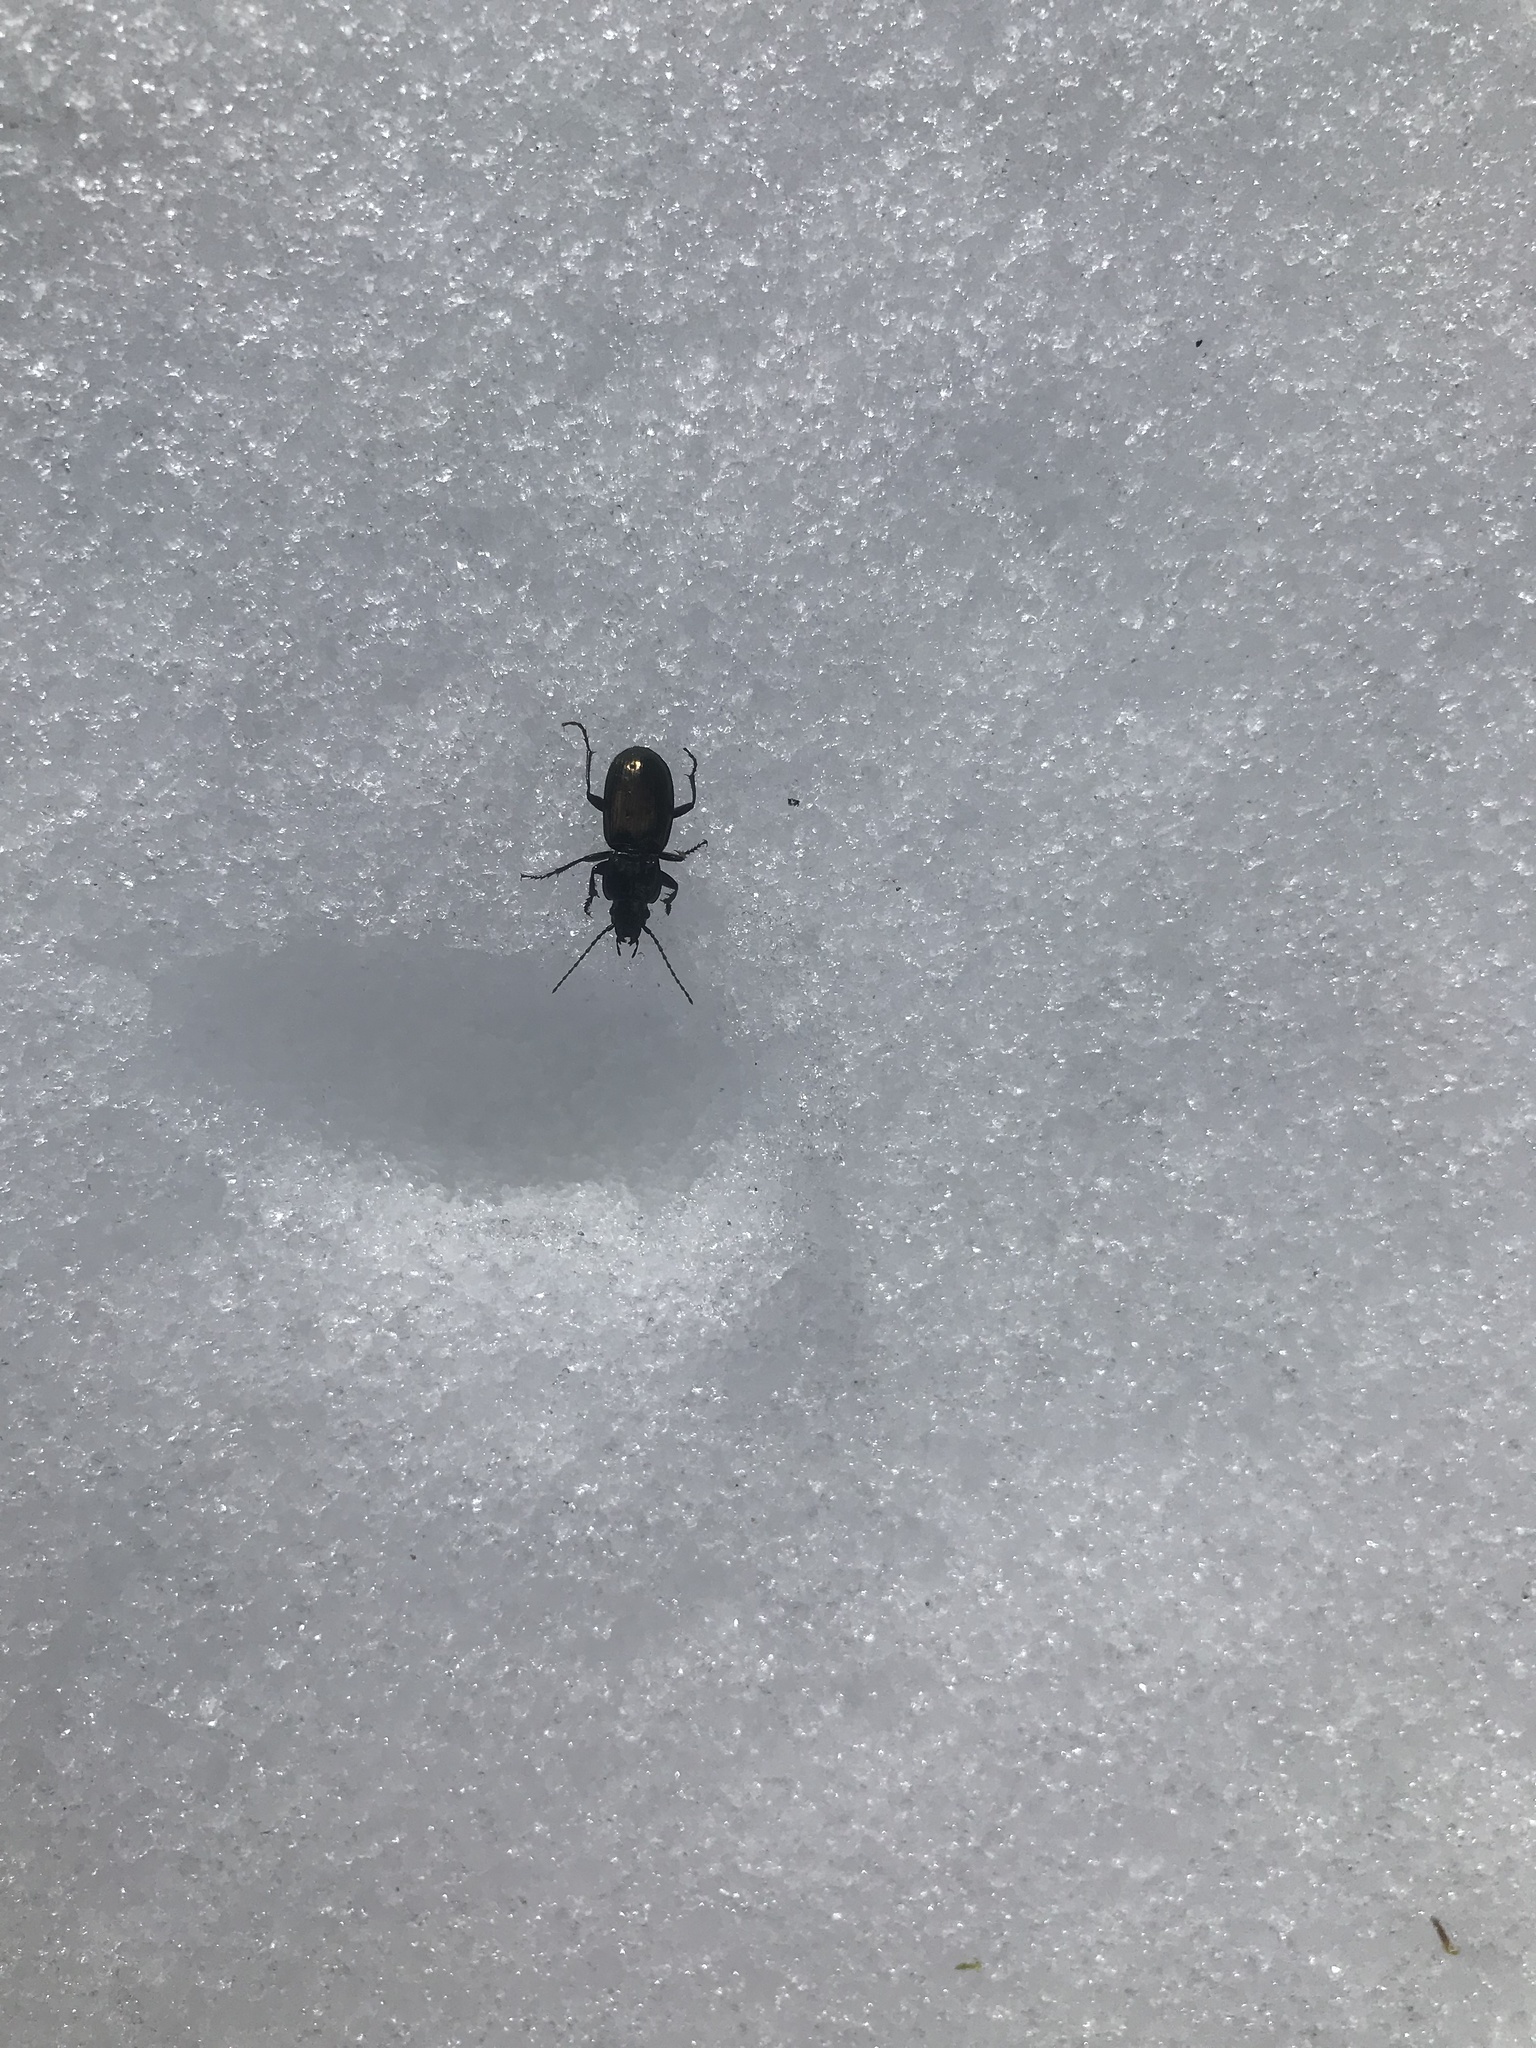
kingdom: Animalia
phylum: Arthropoda
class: Insecta
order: Coleoptera
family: Carabidae
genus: Pterostichus
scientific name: Pterostichus jurinei
